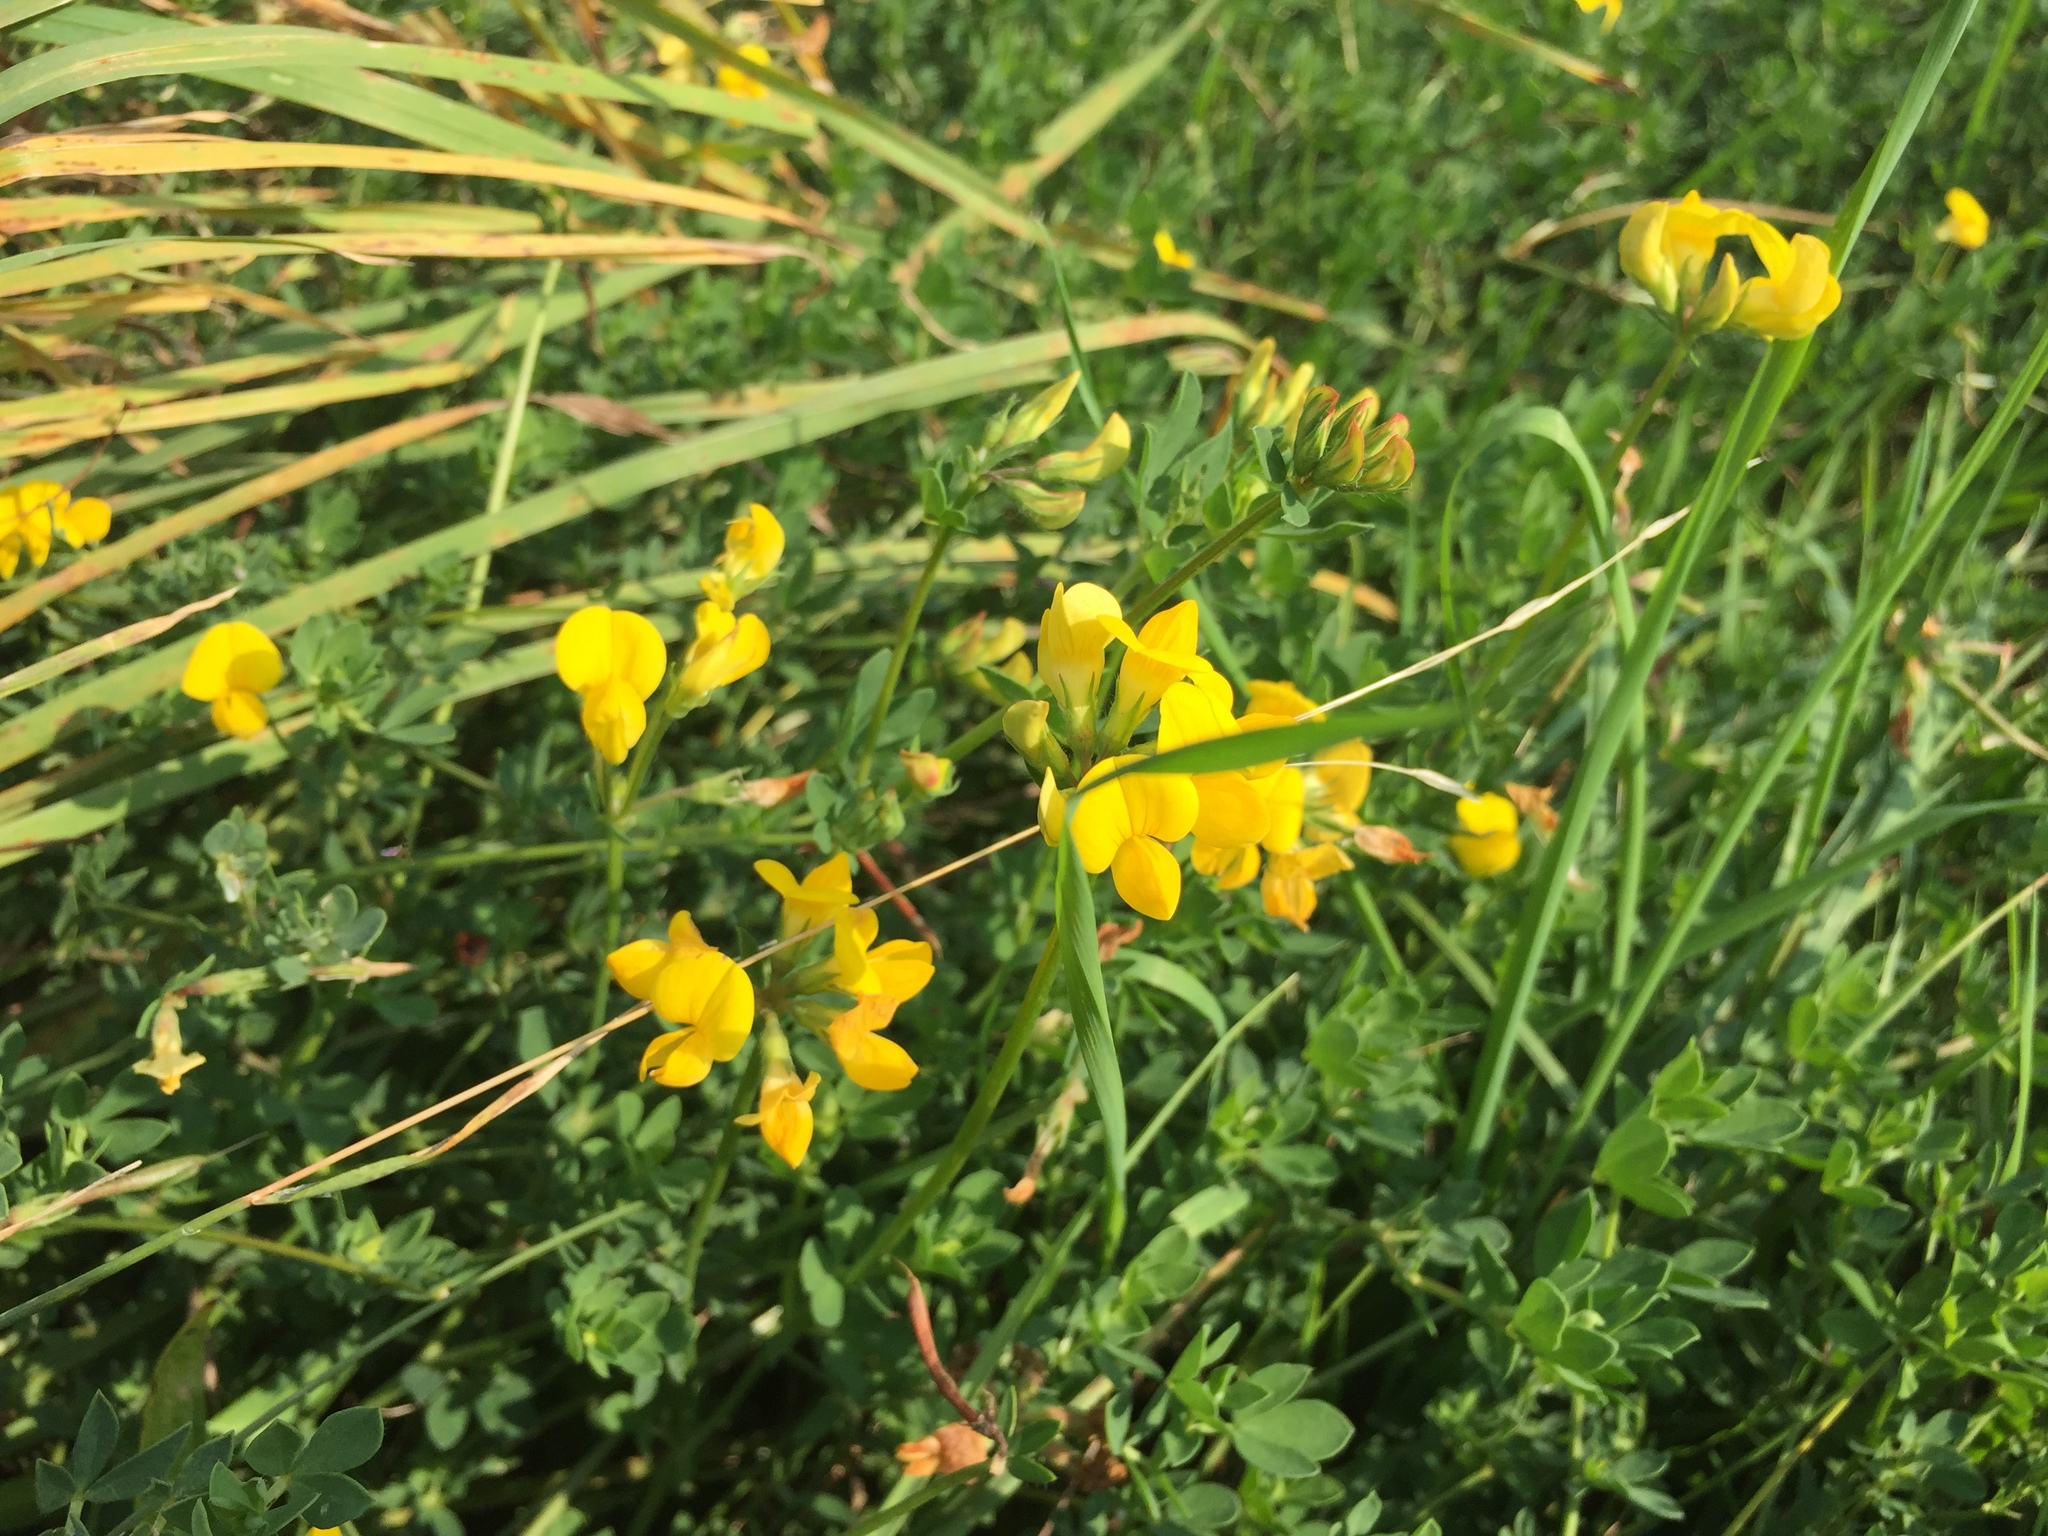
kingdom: Plantae
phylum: Tracheophyta
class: Magnoliopsida
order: Fabales
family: Fabaceae
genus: Lotus
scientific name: Lotus corniculatus
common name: Common bird's-foot-trefoil
